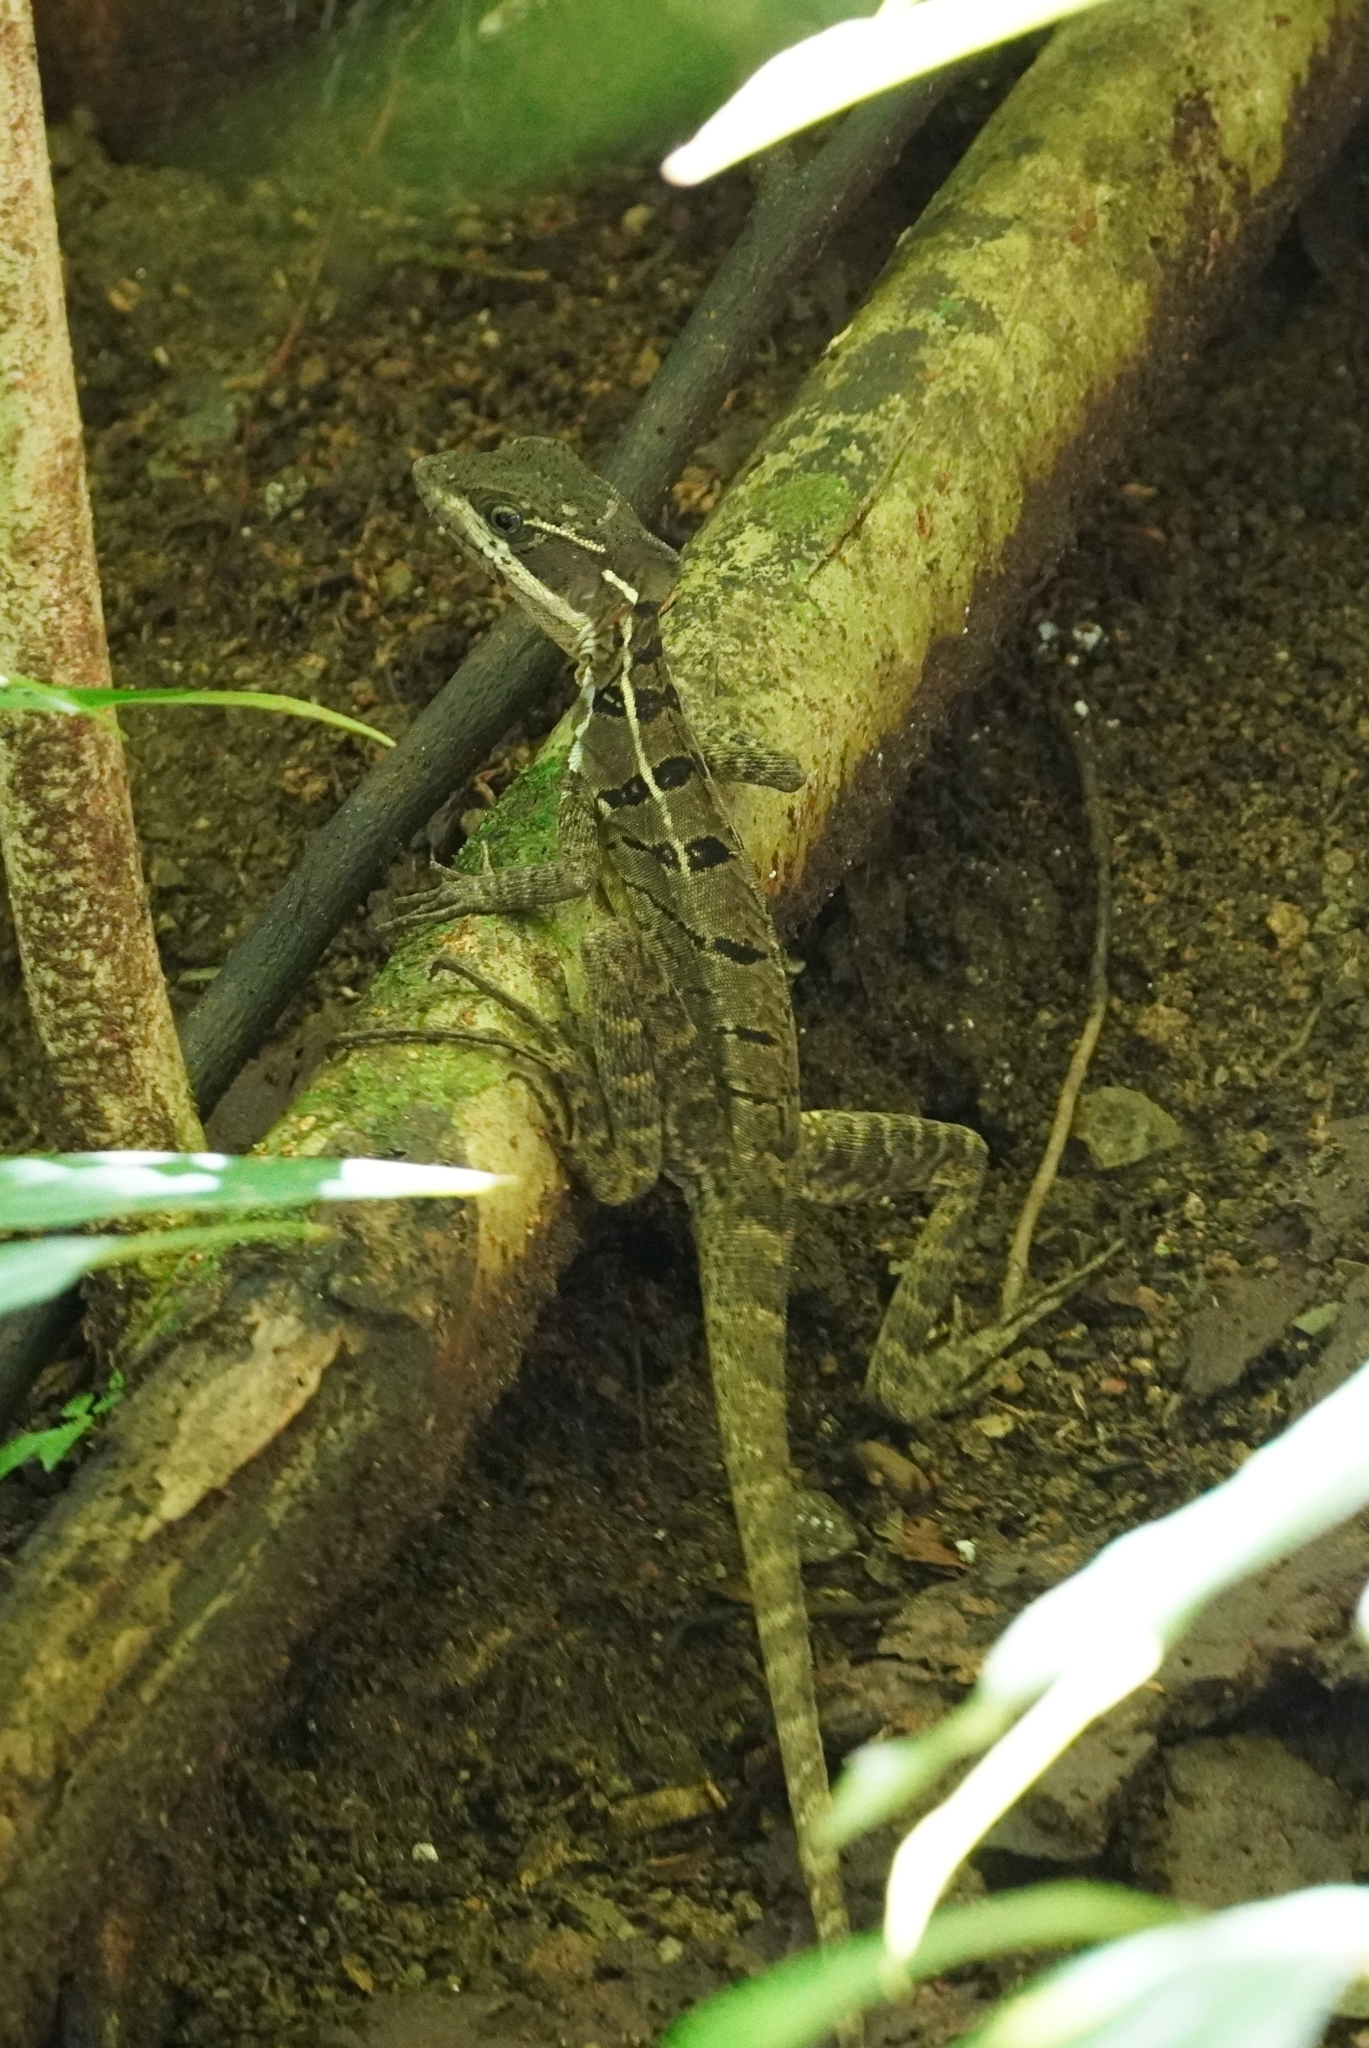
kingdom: Animalia
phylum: Chordata
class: Squamata
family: Corytophanidae
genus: Basiliscus
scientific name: Basiliscus basiliscus
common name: Common basilisk
